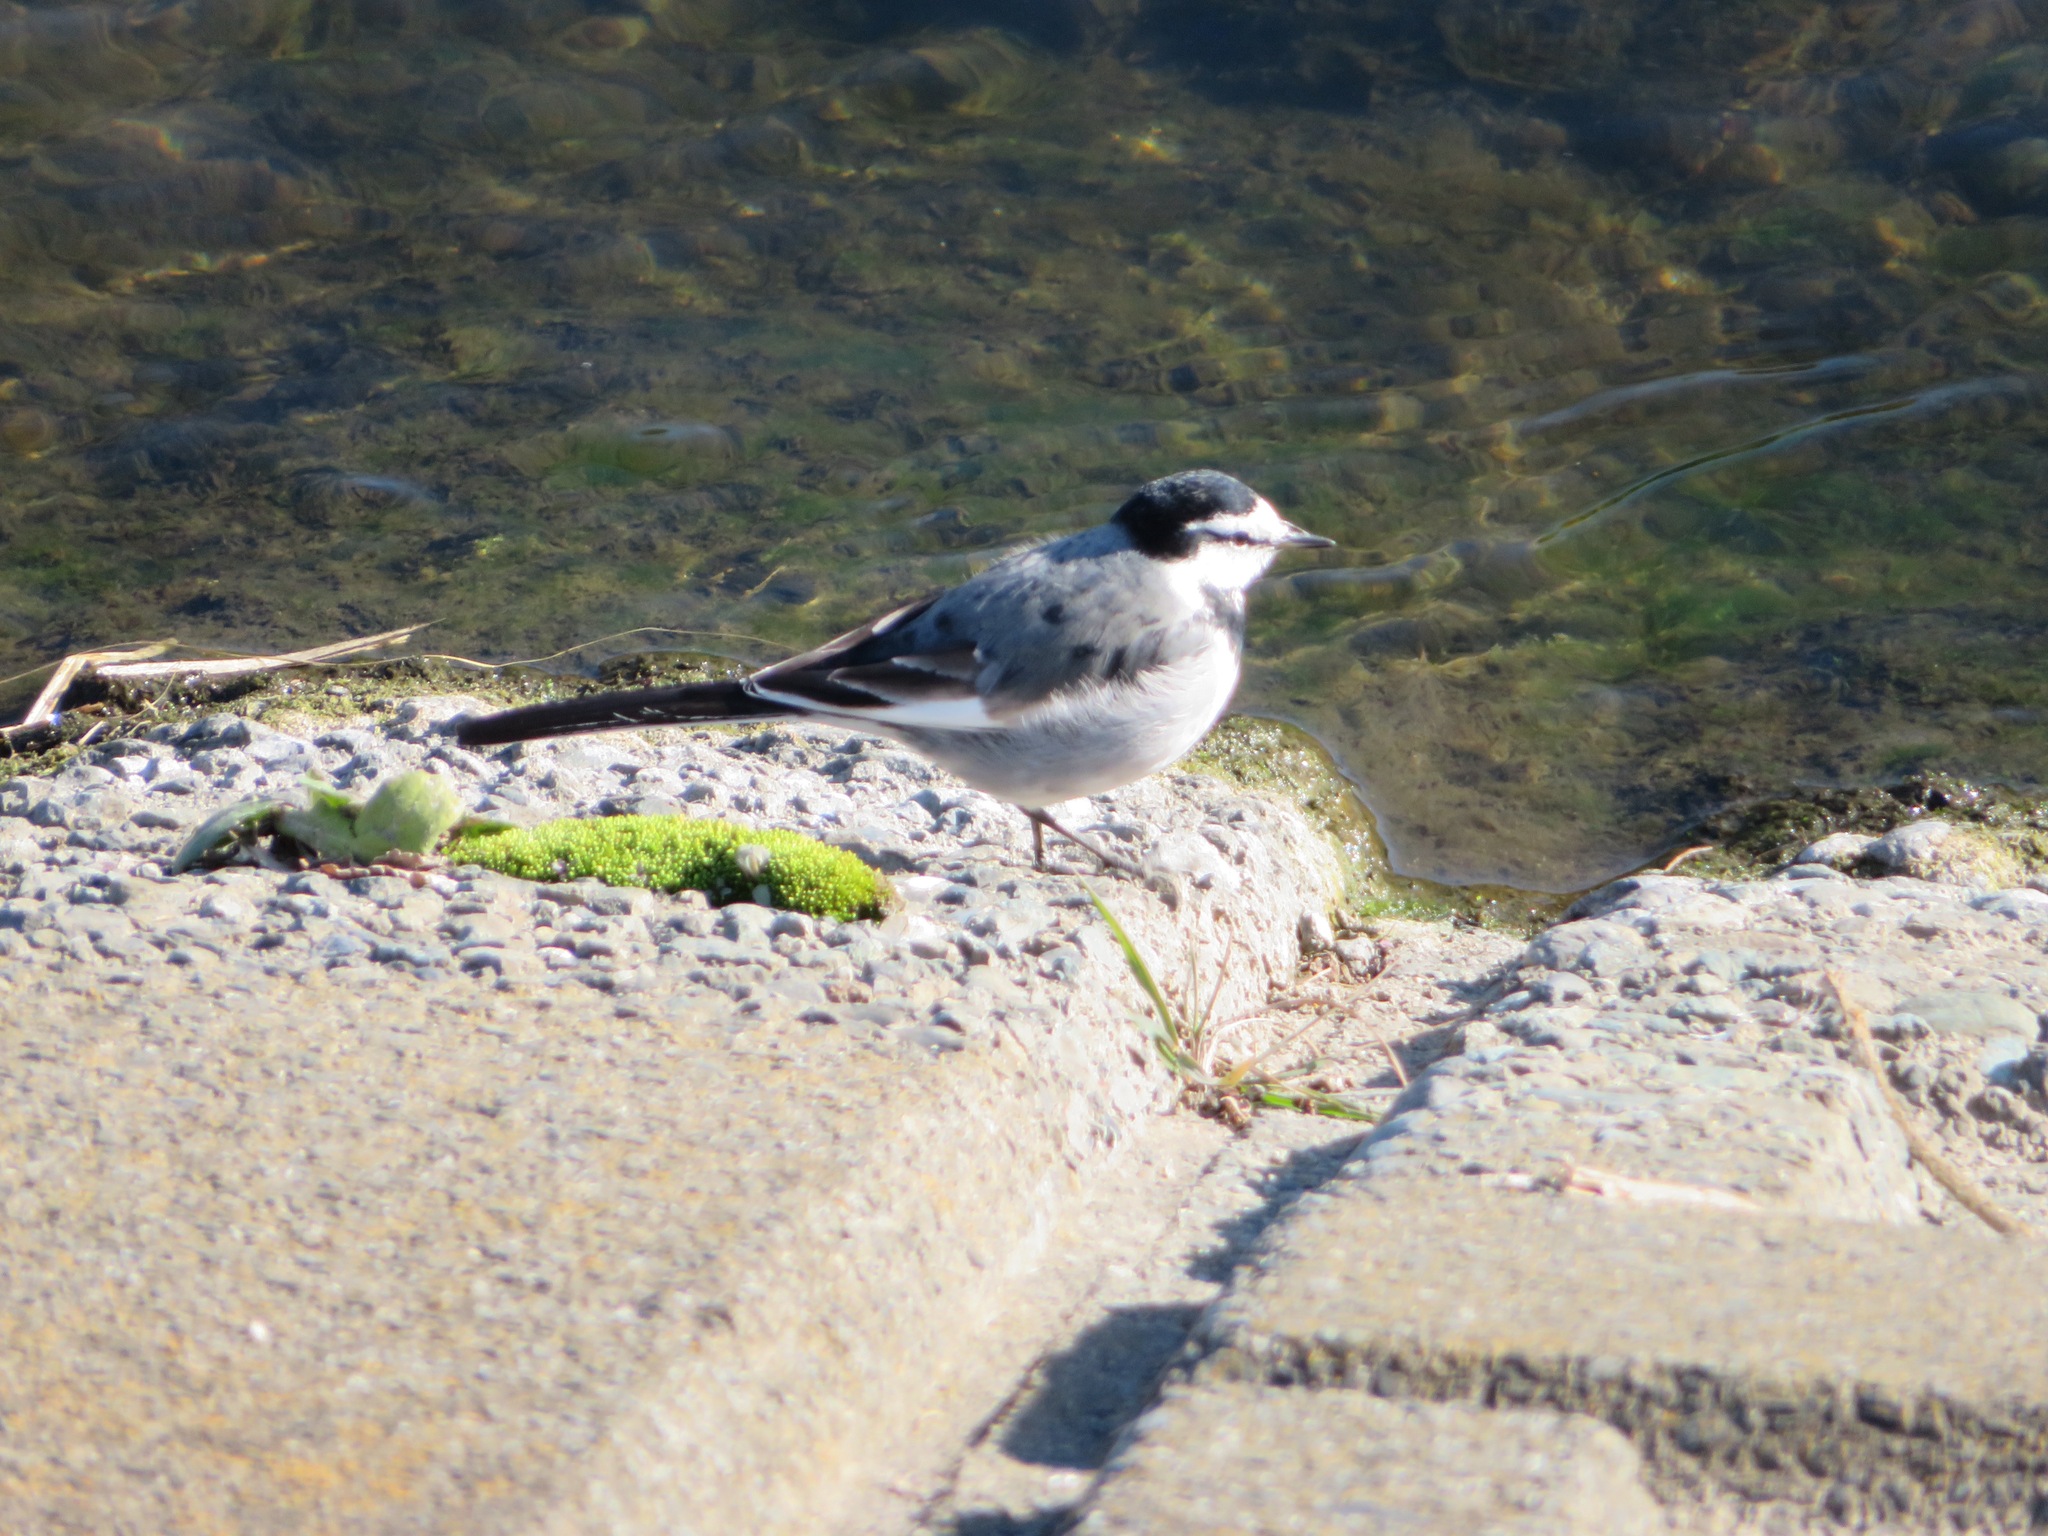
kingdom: Animalia
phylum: Chordata
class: Aves
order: Passeriformes
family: Motacillidae
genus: Motacilla
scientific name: Motacilla alba
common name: White wagtail
